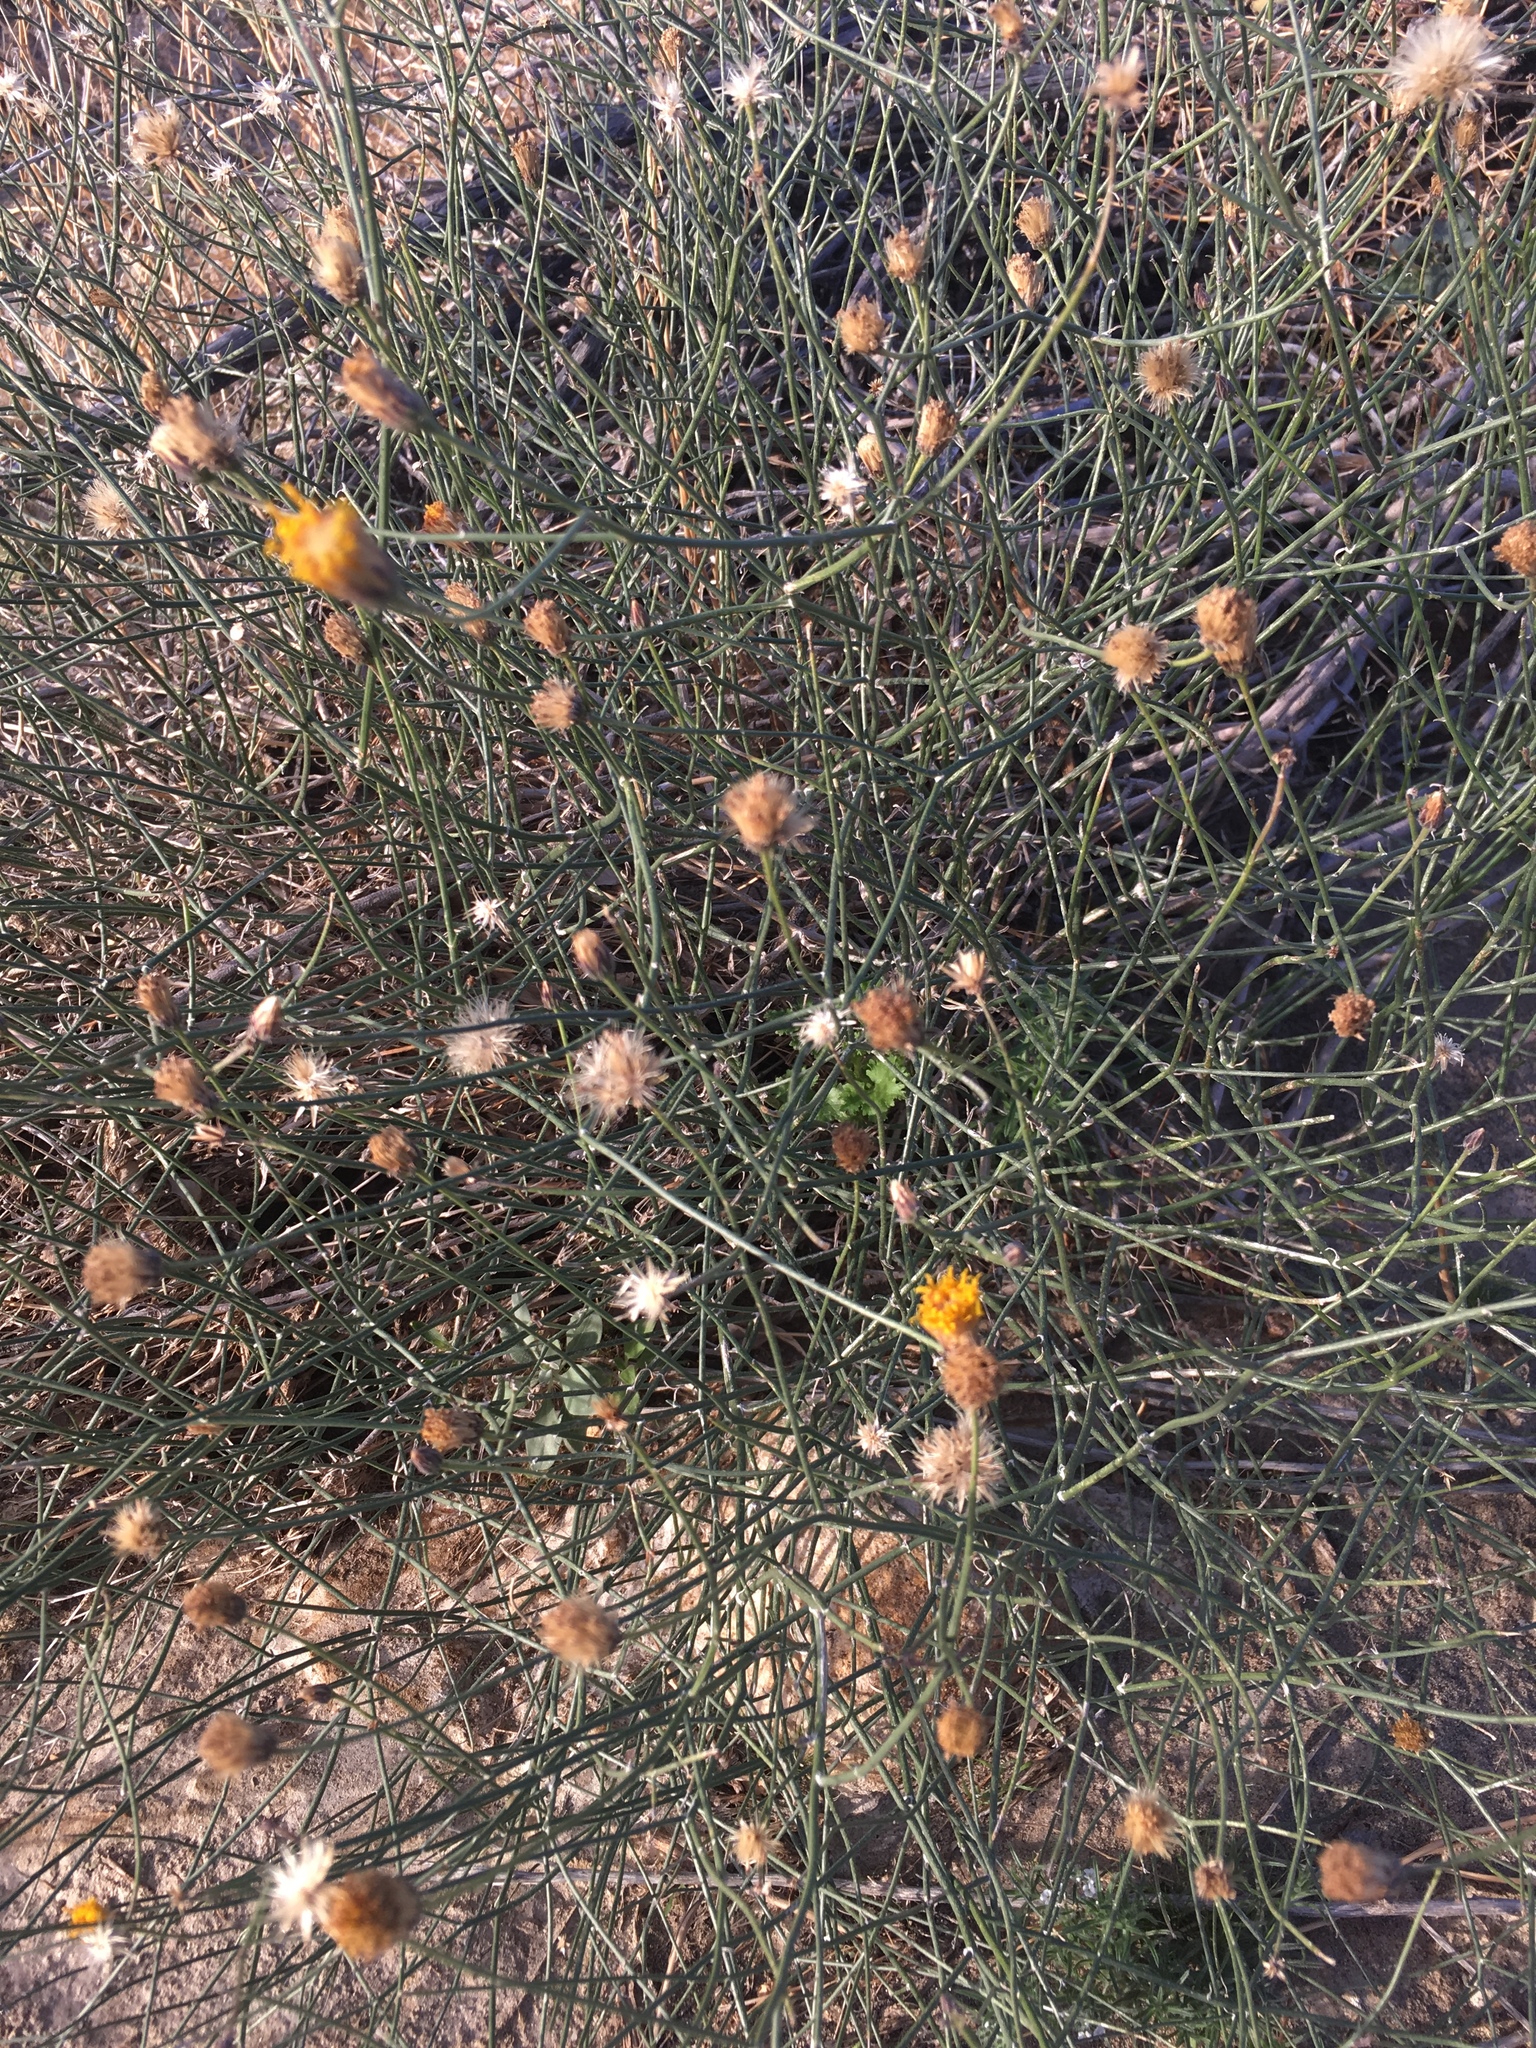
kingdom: Plantae
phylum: Tracheophyta
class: Magnoliopsida
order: Asterales
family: Asteraceae
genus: Bebbia
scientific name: Bebbia juncea
